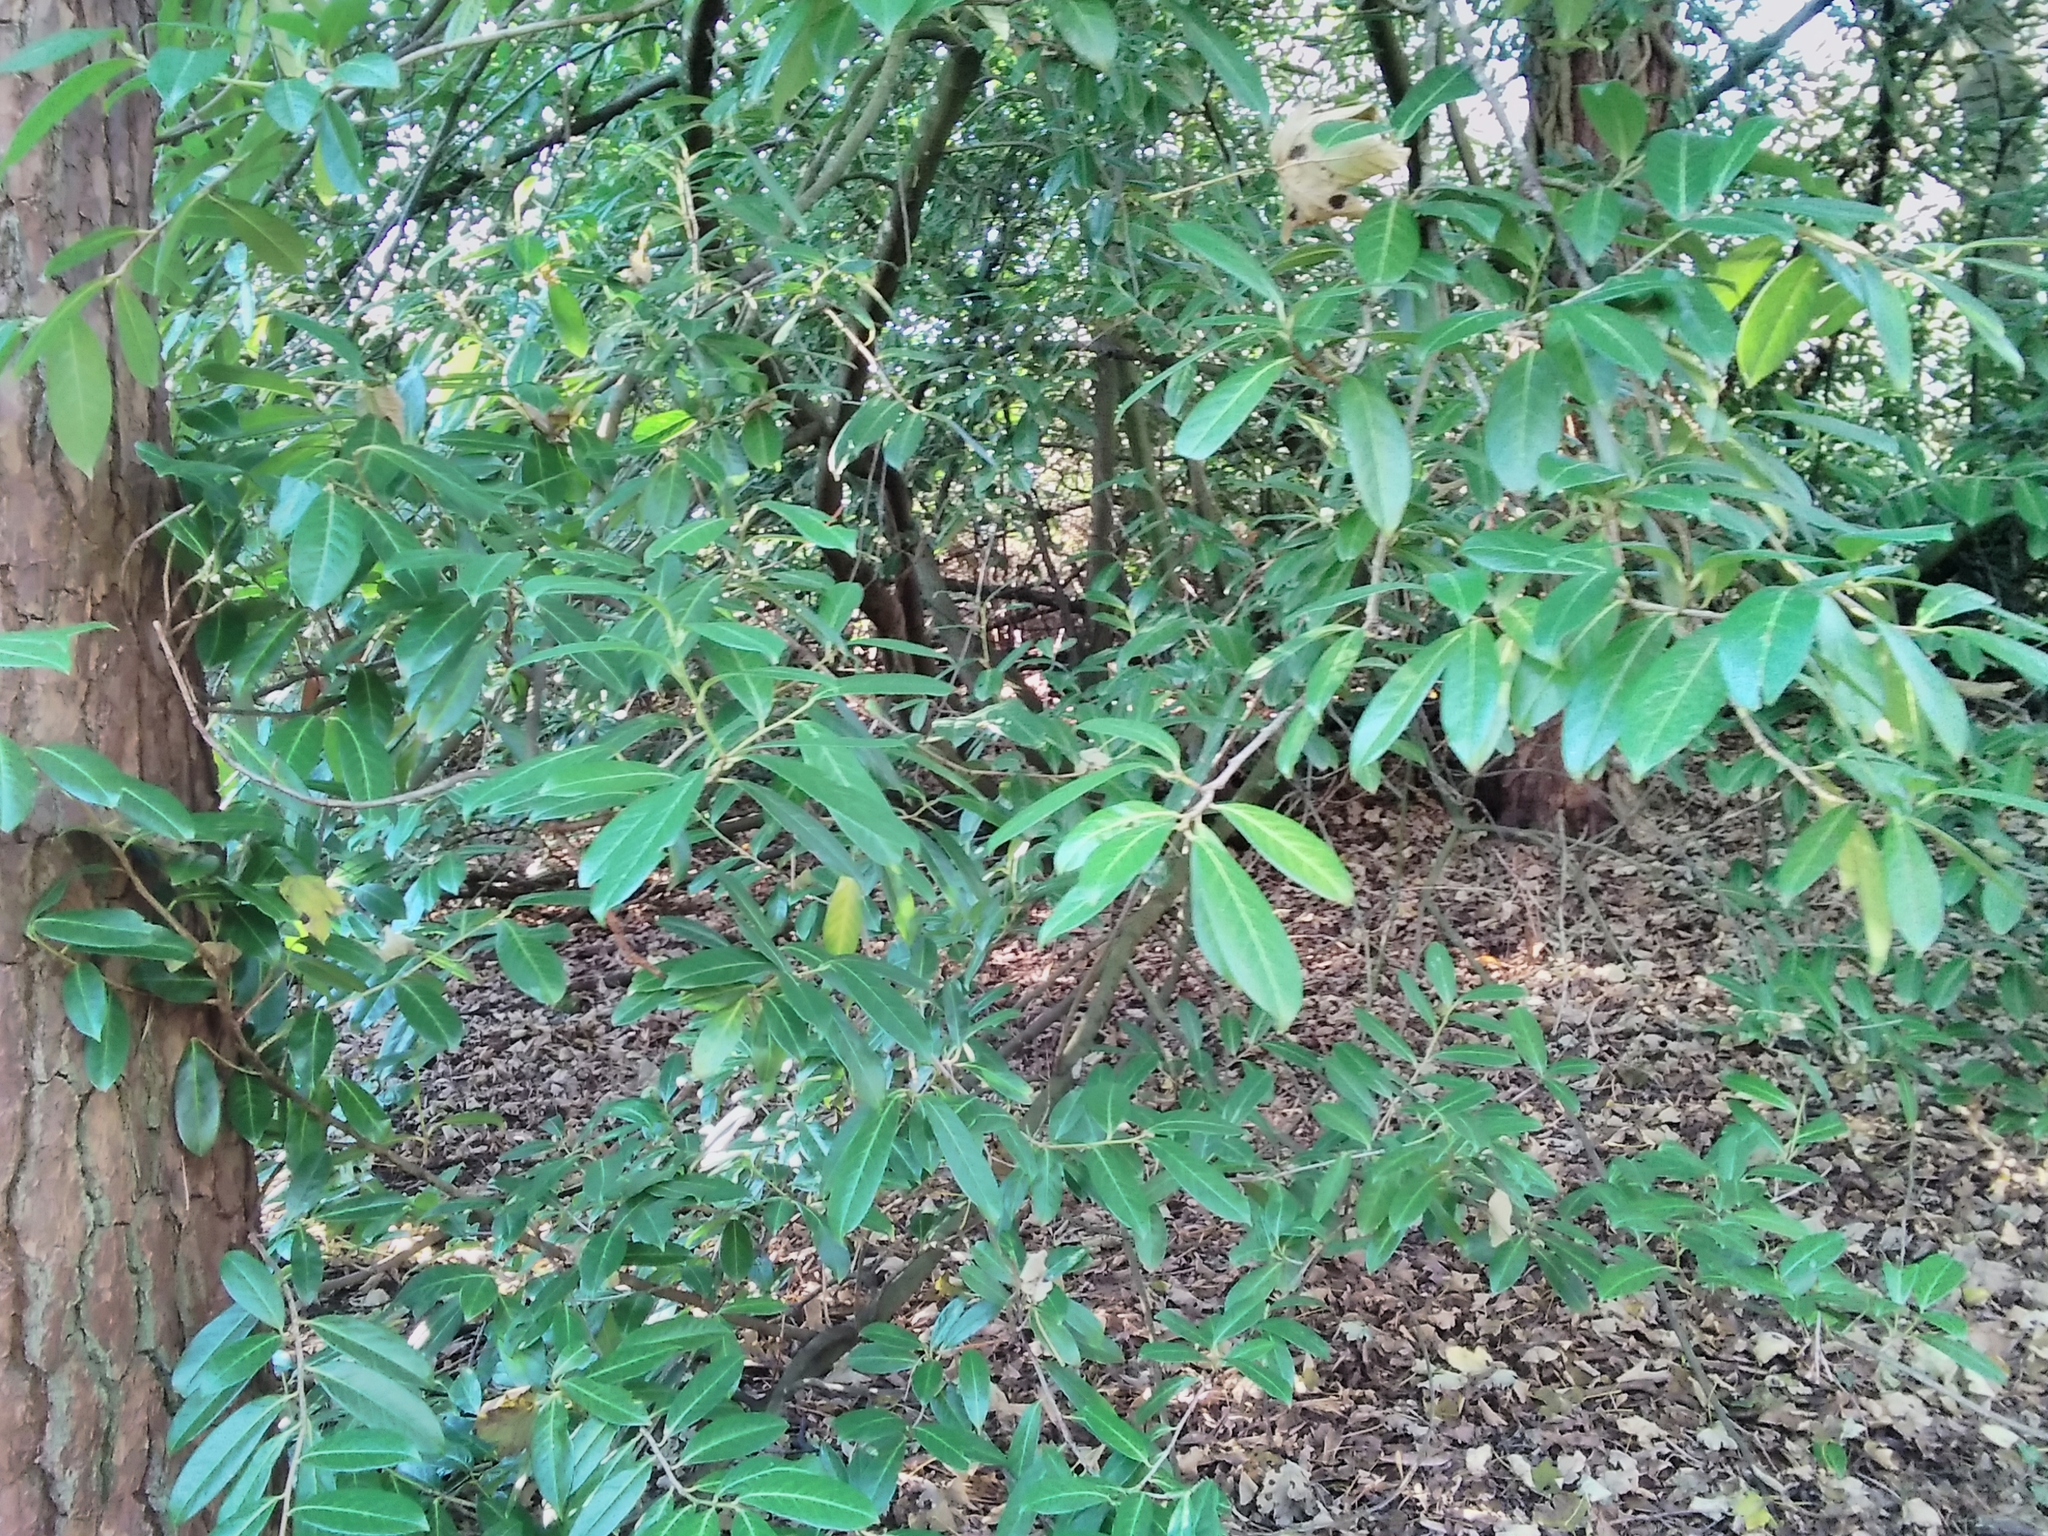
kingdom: Plantae
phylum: Tracheophyta
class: Magnoliopsida
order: Rosales
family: Rosaceae
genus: Prunus
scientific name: Prunus laurocerasus
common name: Cherry laurel
